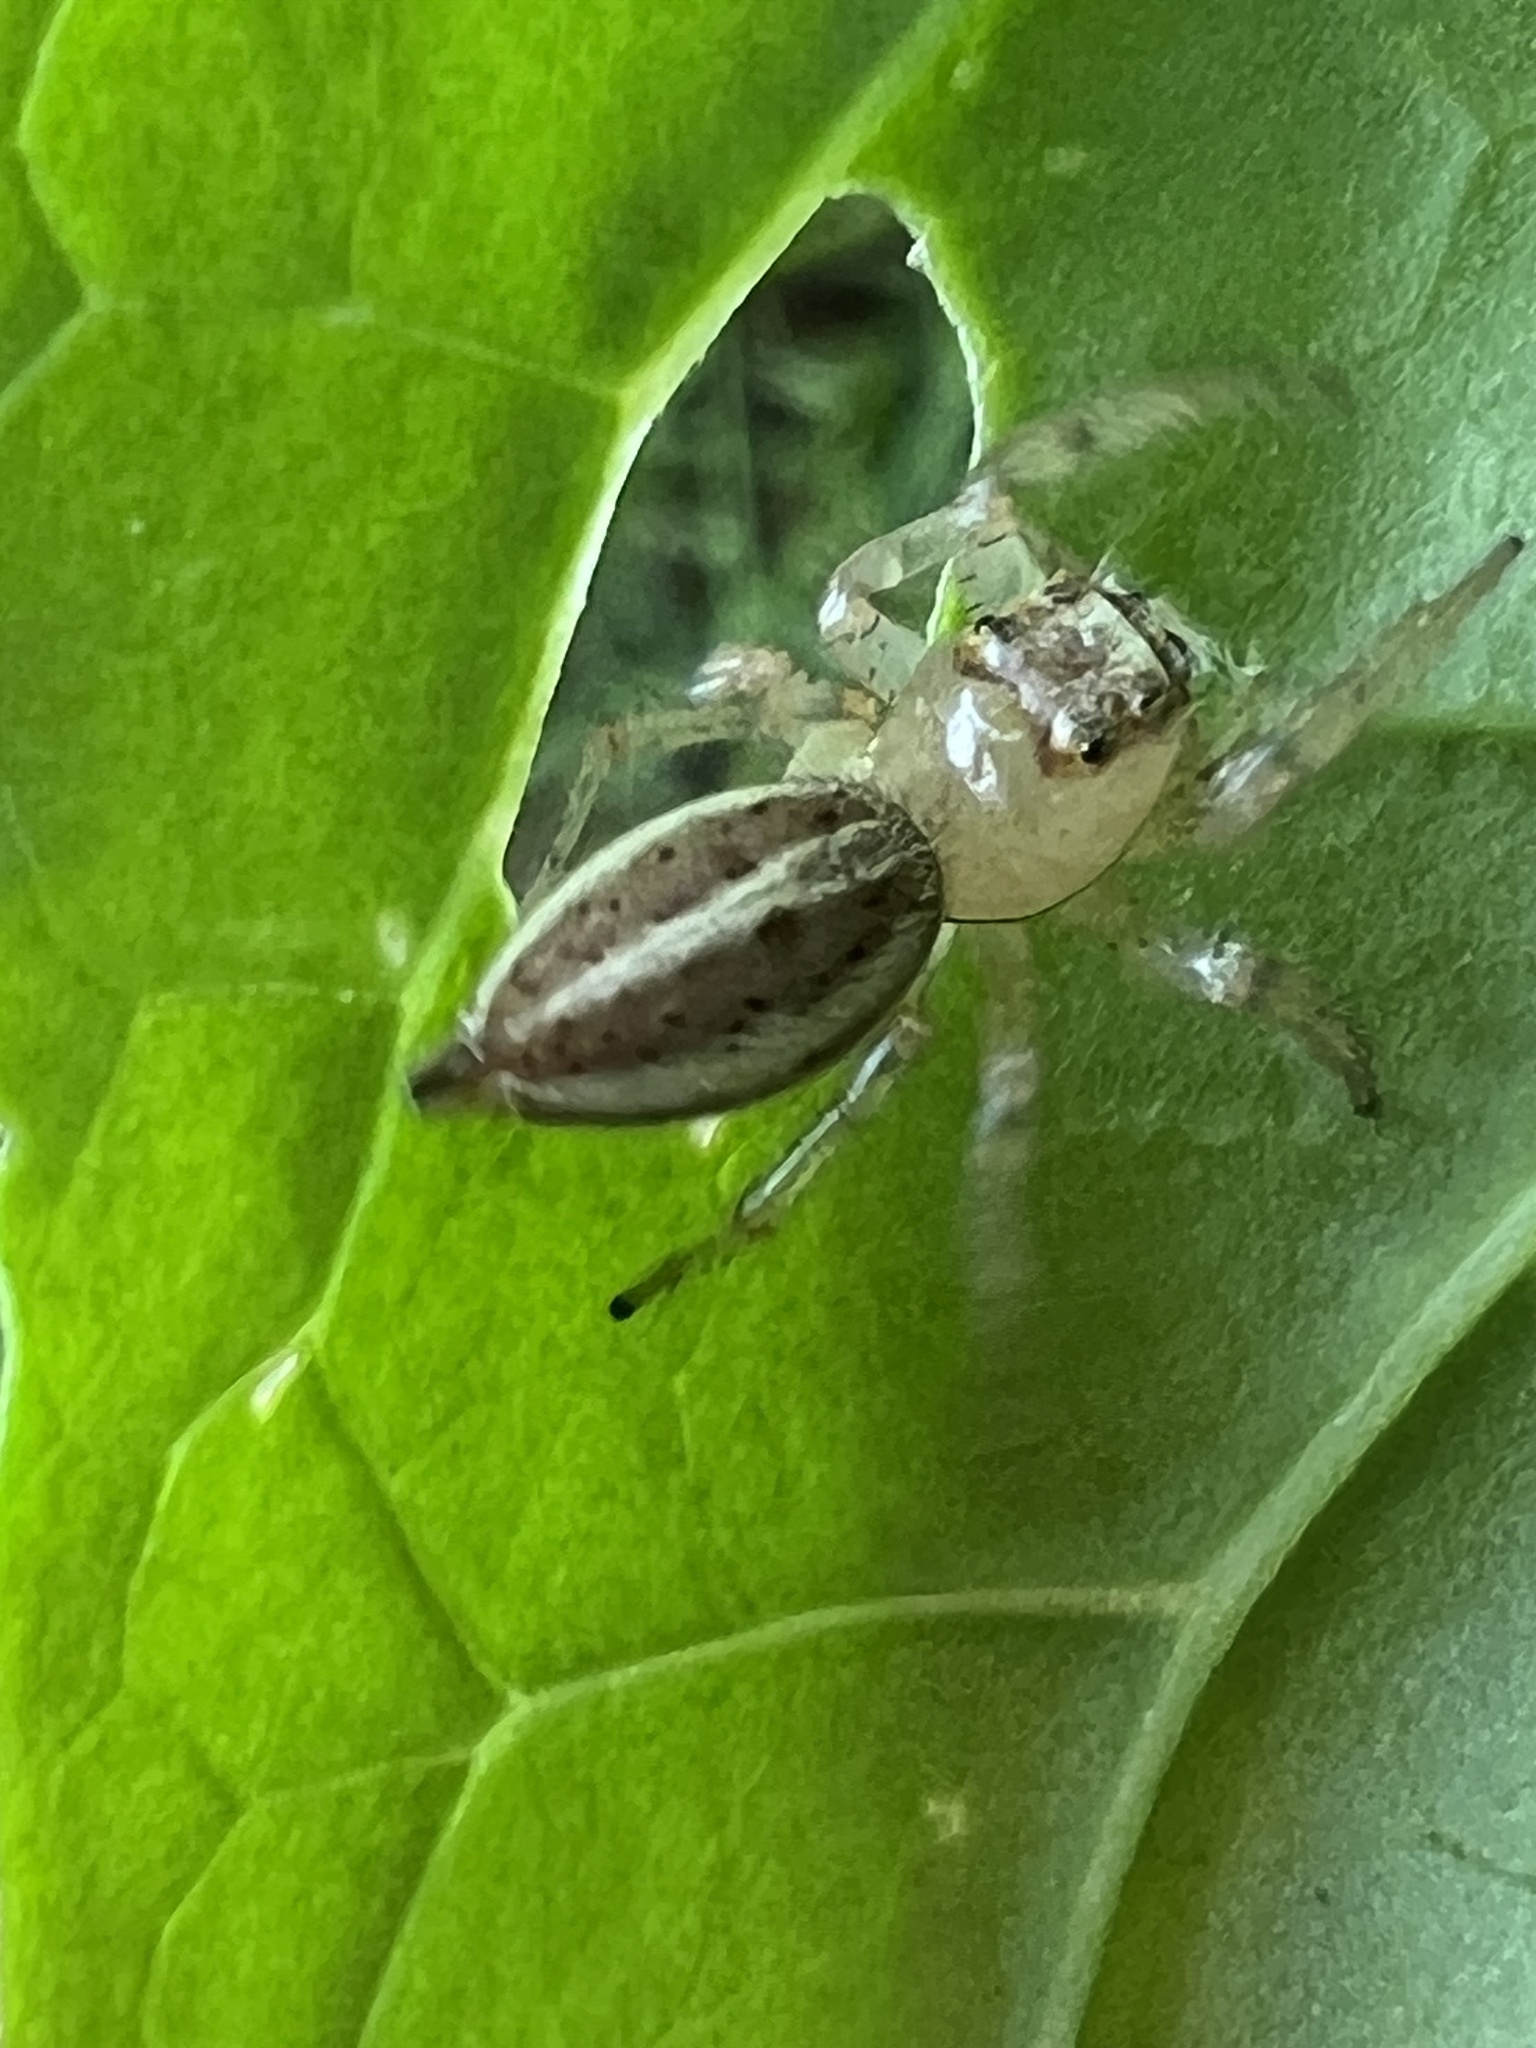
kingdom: Animalia
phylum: Arthropoda
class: Arachnida
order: Araneae
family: Salticidae
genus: Colonus
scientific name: Colonus sylvanus
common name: Jumping spiders
